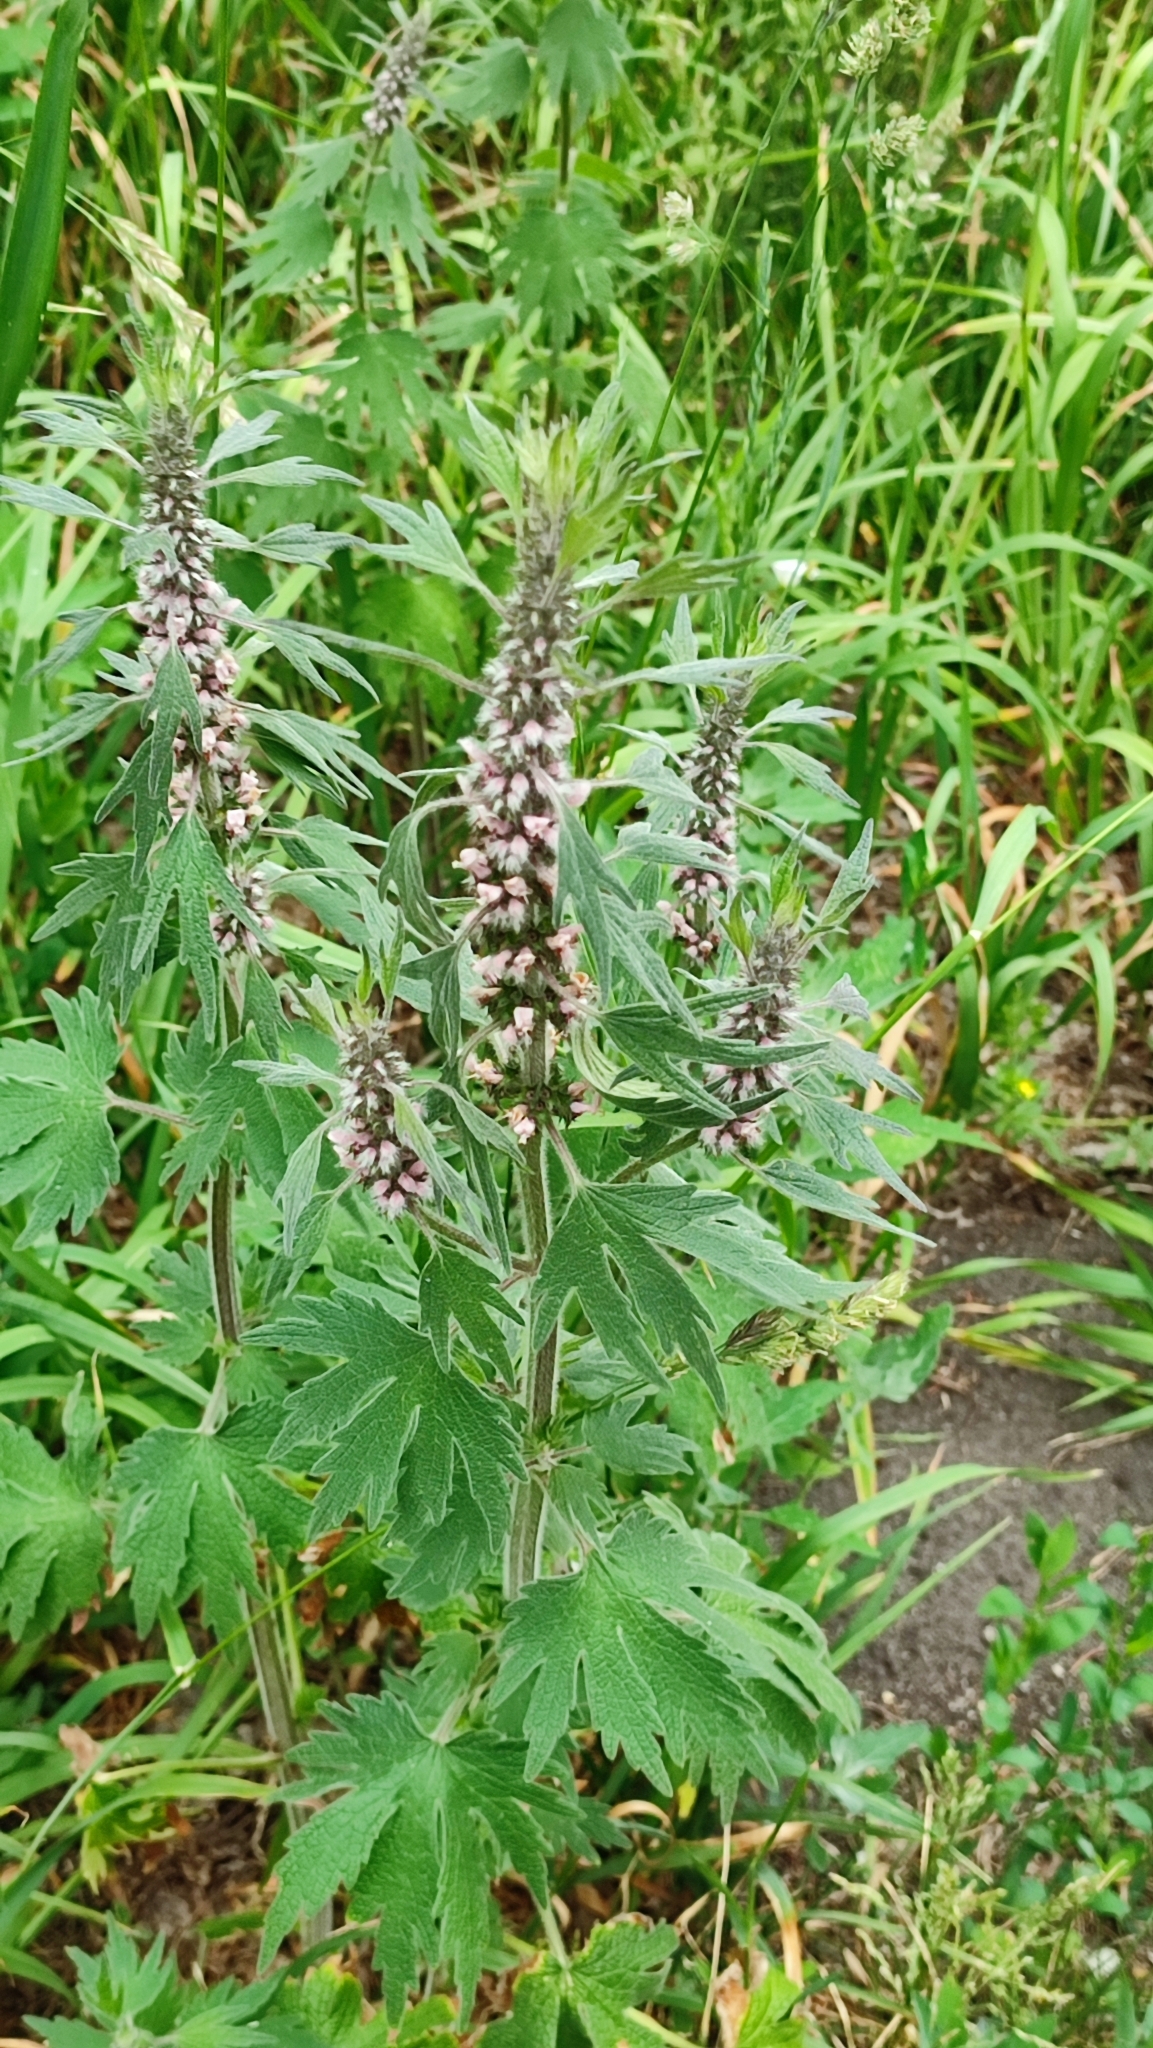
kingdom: Plantae
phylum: Tracheophyta
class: Magnoliopsida
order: Lamiales
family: Lamiaceae
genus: Leonurus
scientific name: Leonurus quinquelobatus
